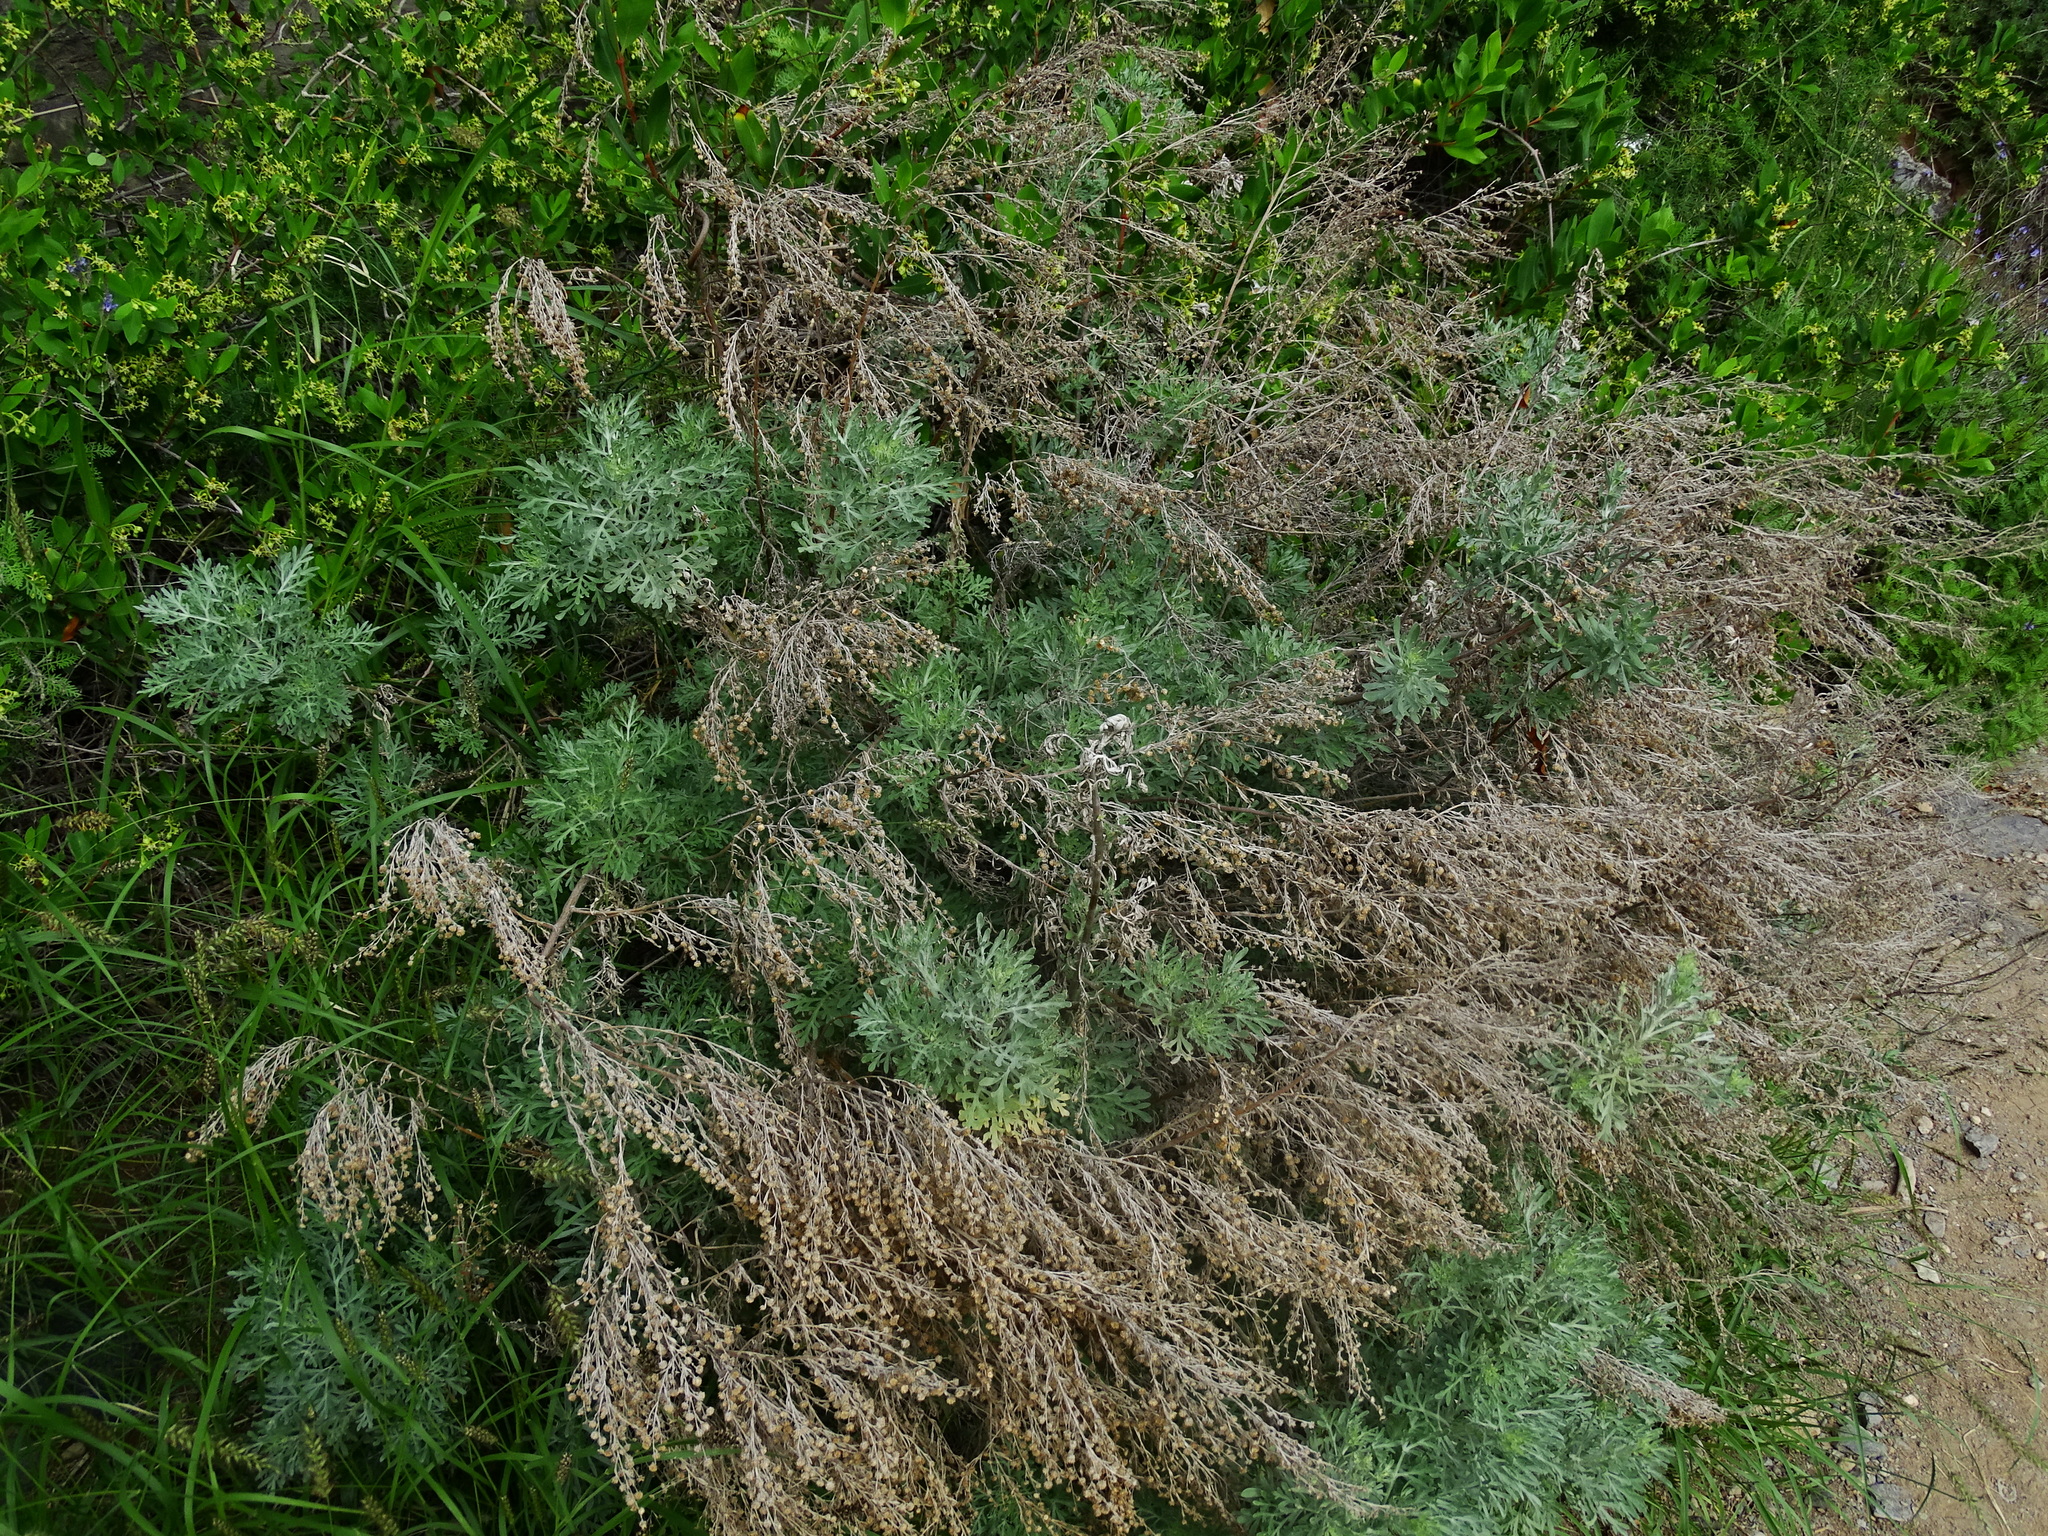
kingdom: Plantae
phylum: Tracheophyta
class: Magnoliopsida
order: Asterales
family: Asteraceae
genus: Artemisia
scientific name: Artemisia thuscula
